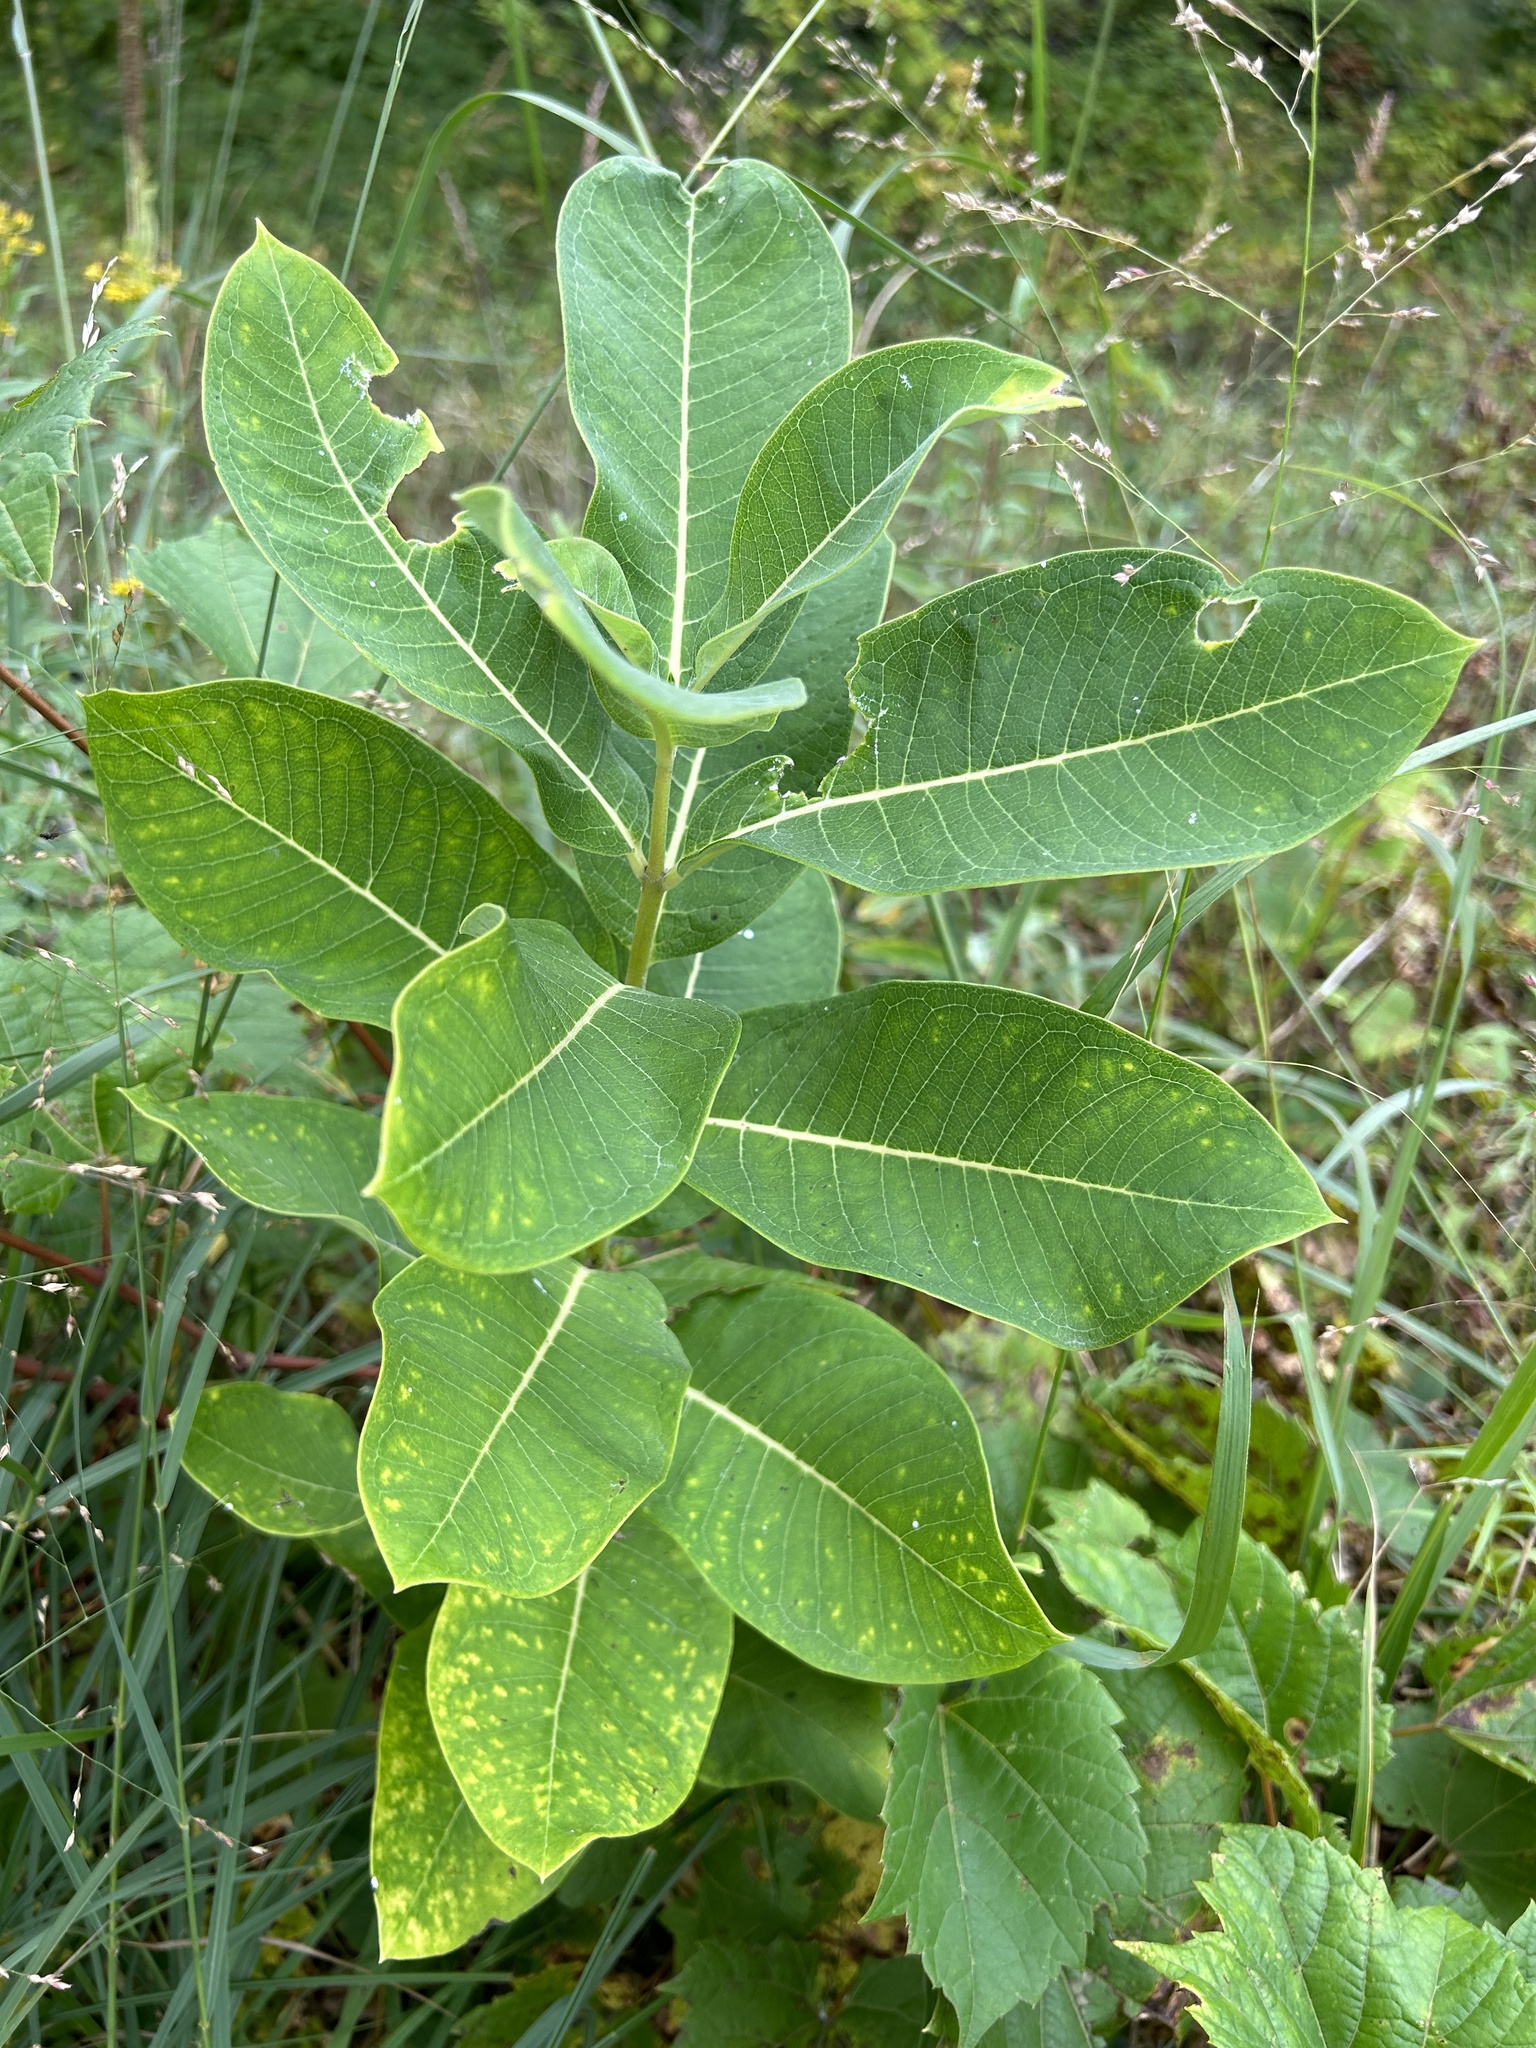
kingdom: Plantae
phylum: Tracheophyta
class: Magnoliopsida
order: Gentianales
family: Apocynaceae
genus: Asclepias
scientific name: Asclepias syriaca
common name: Common milkweed
